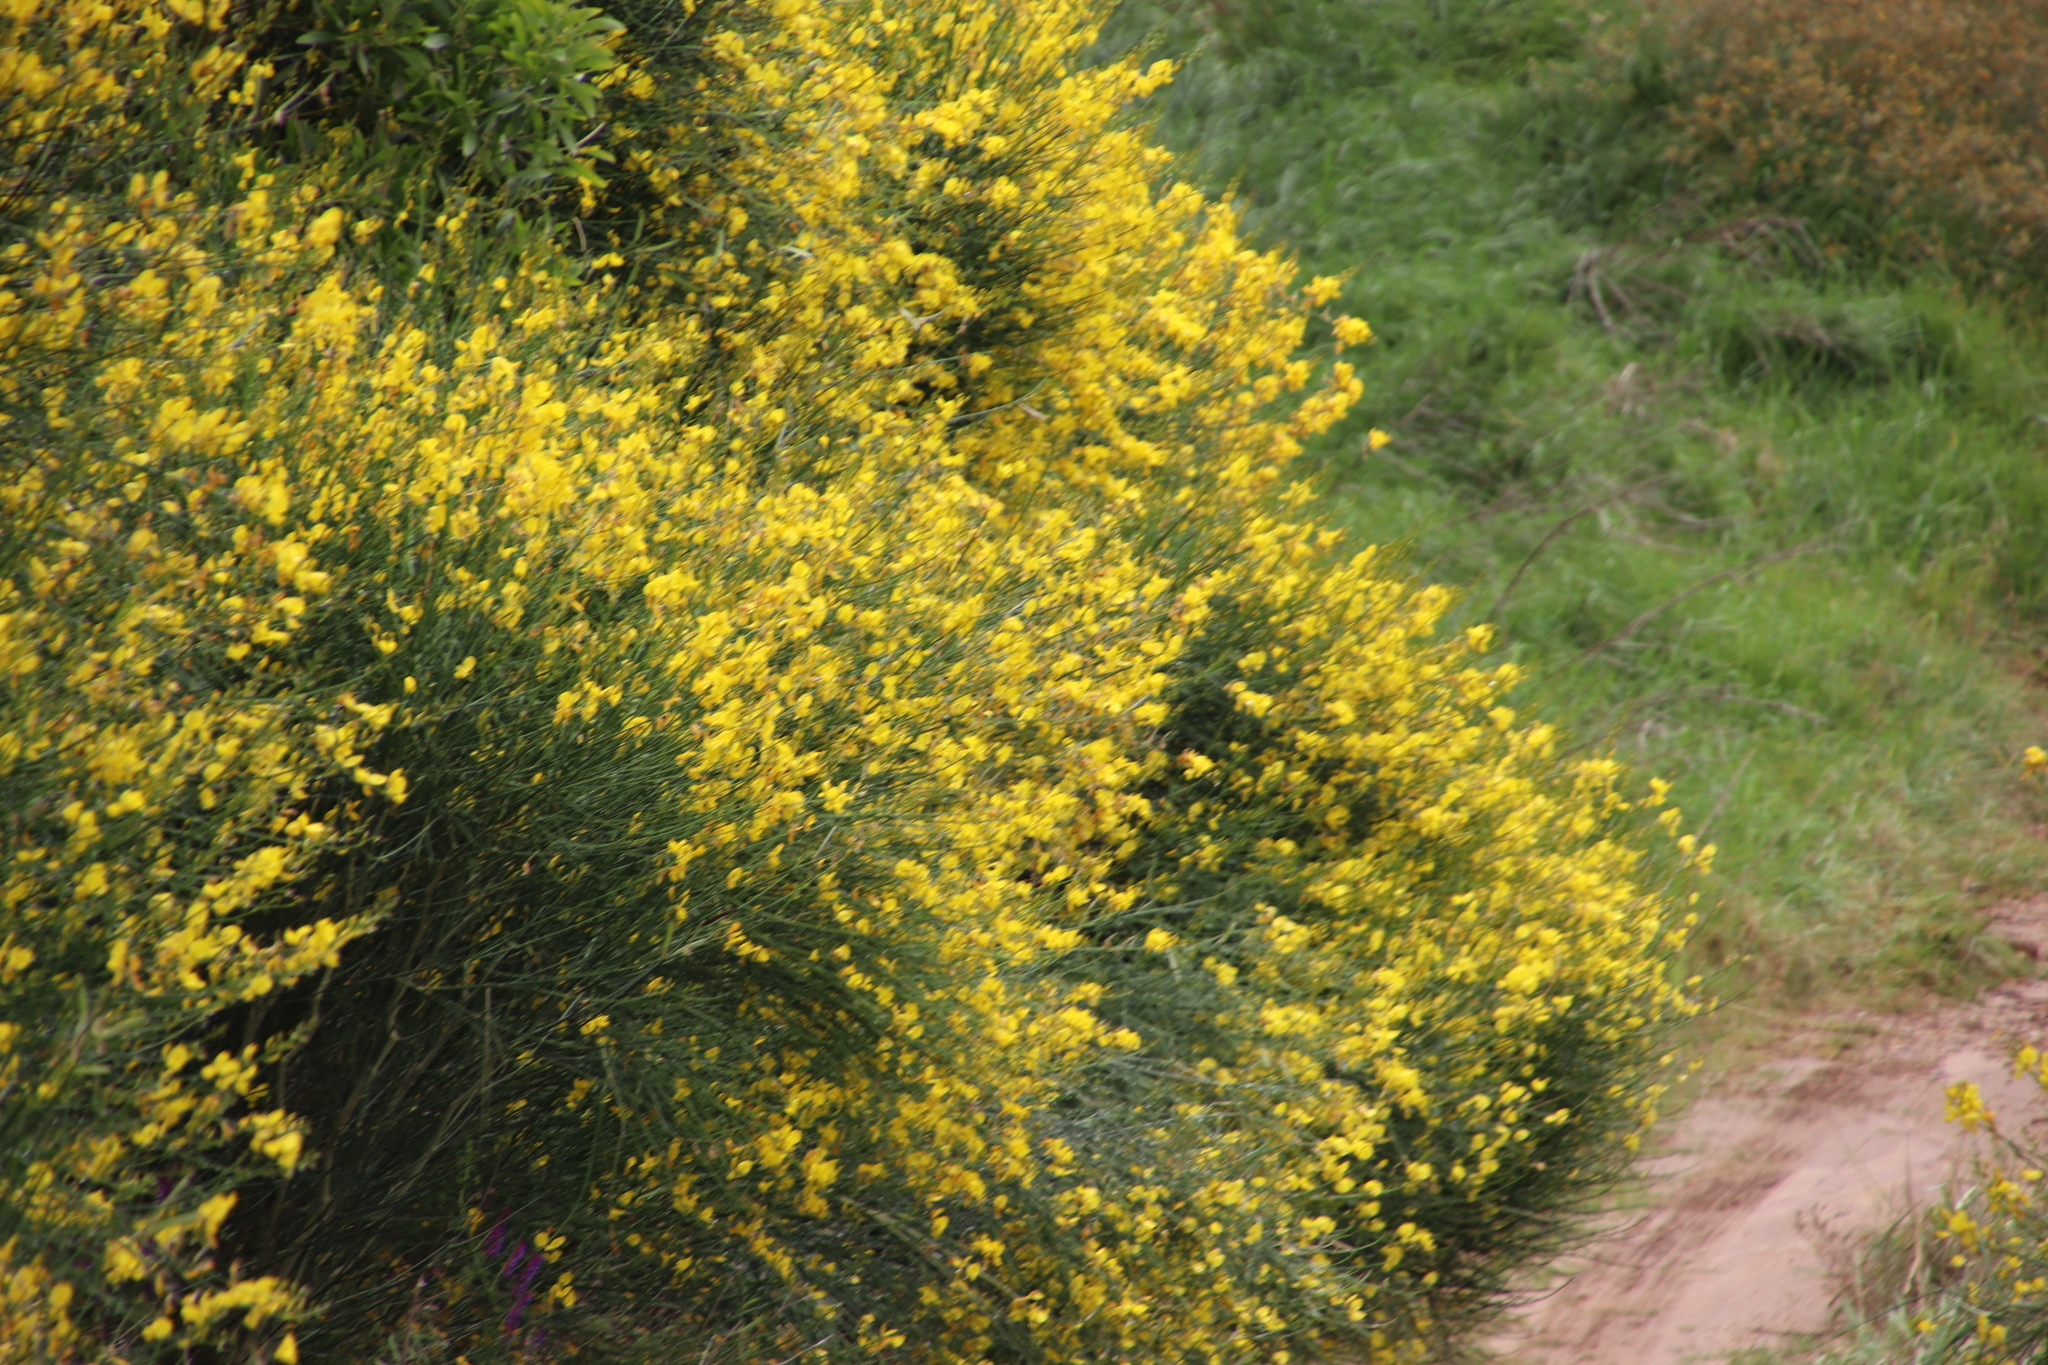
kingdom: Plantae
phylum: Tracheophyta
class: Magnoliopsida
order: Fabales
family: Fabaceae
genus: Spartium
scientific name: Spartium junceum
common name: Spanish broom
